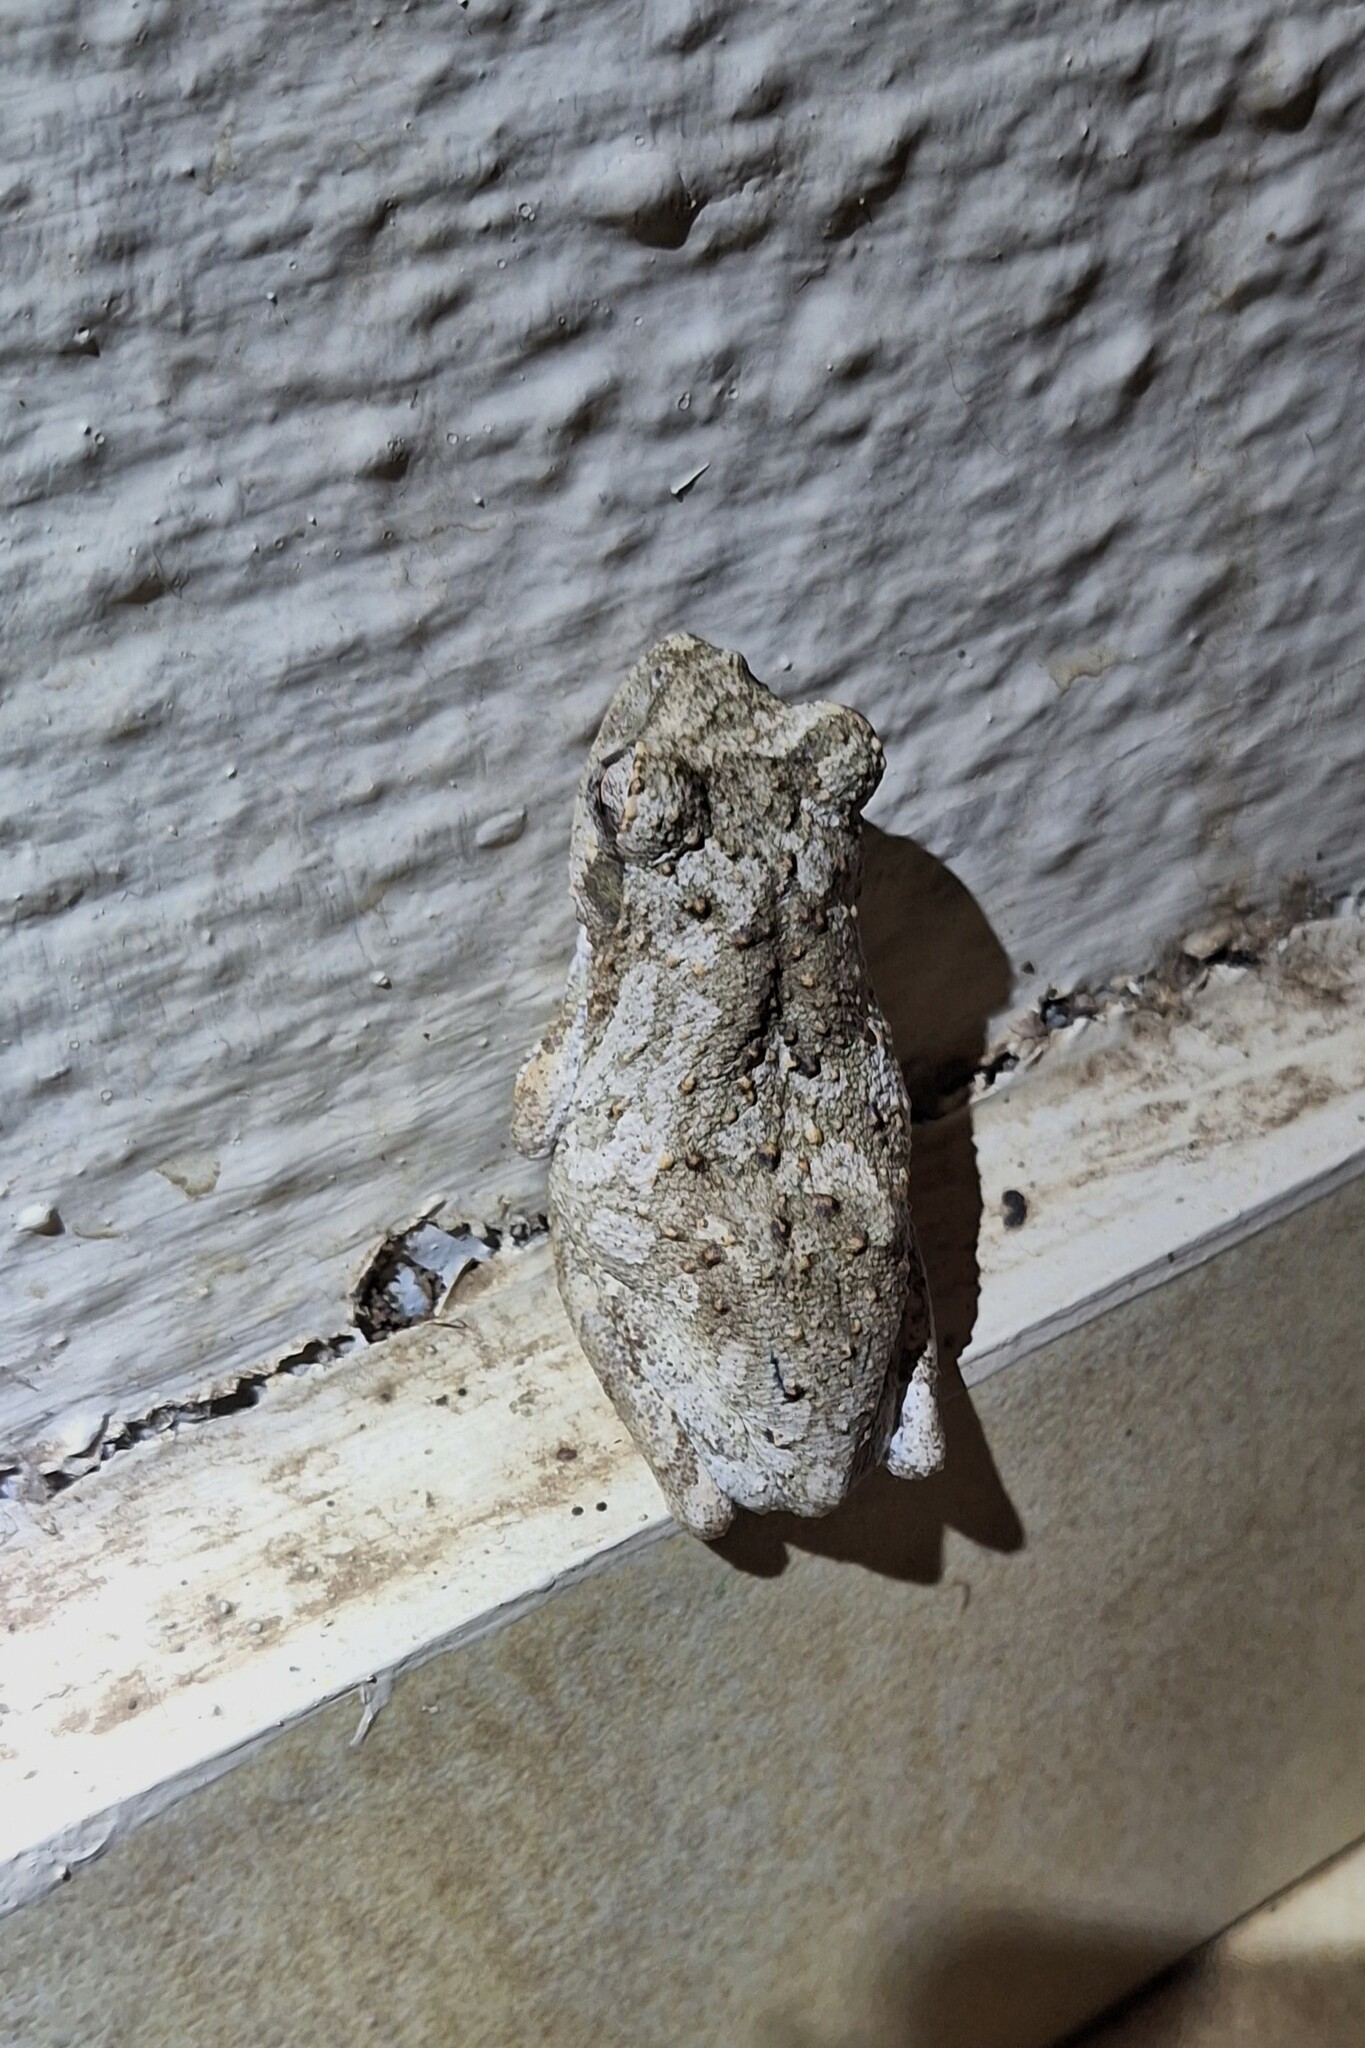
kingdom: Animalia
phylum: Chordata
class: Amphibia
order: Anura
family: Rhacophoridae
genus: Chiromantis
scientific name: Chiromantis xerampelina
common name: African gray treefrog
